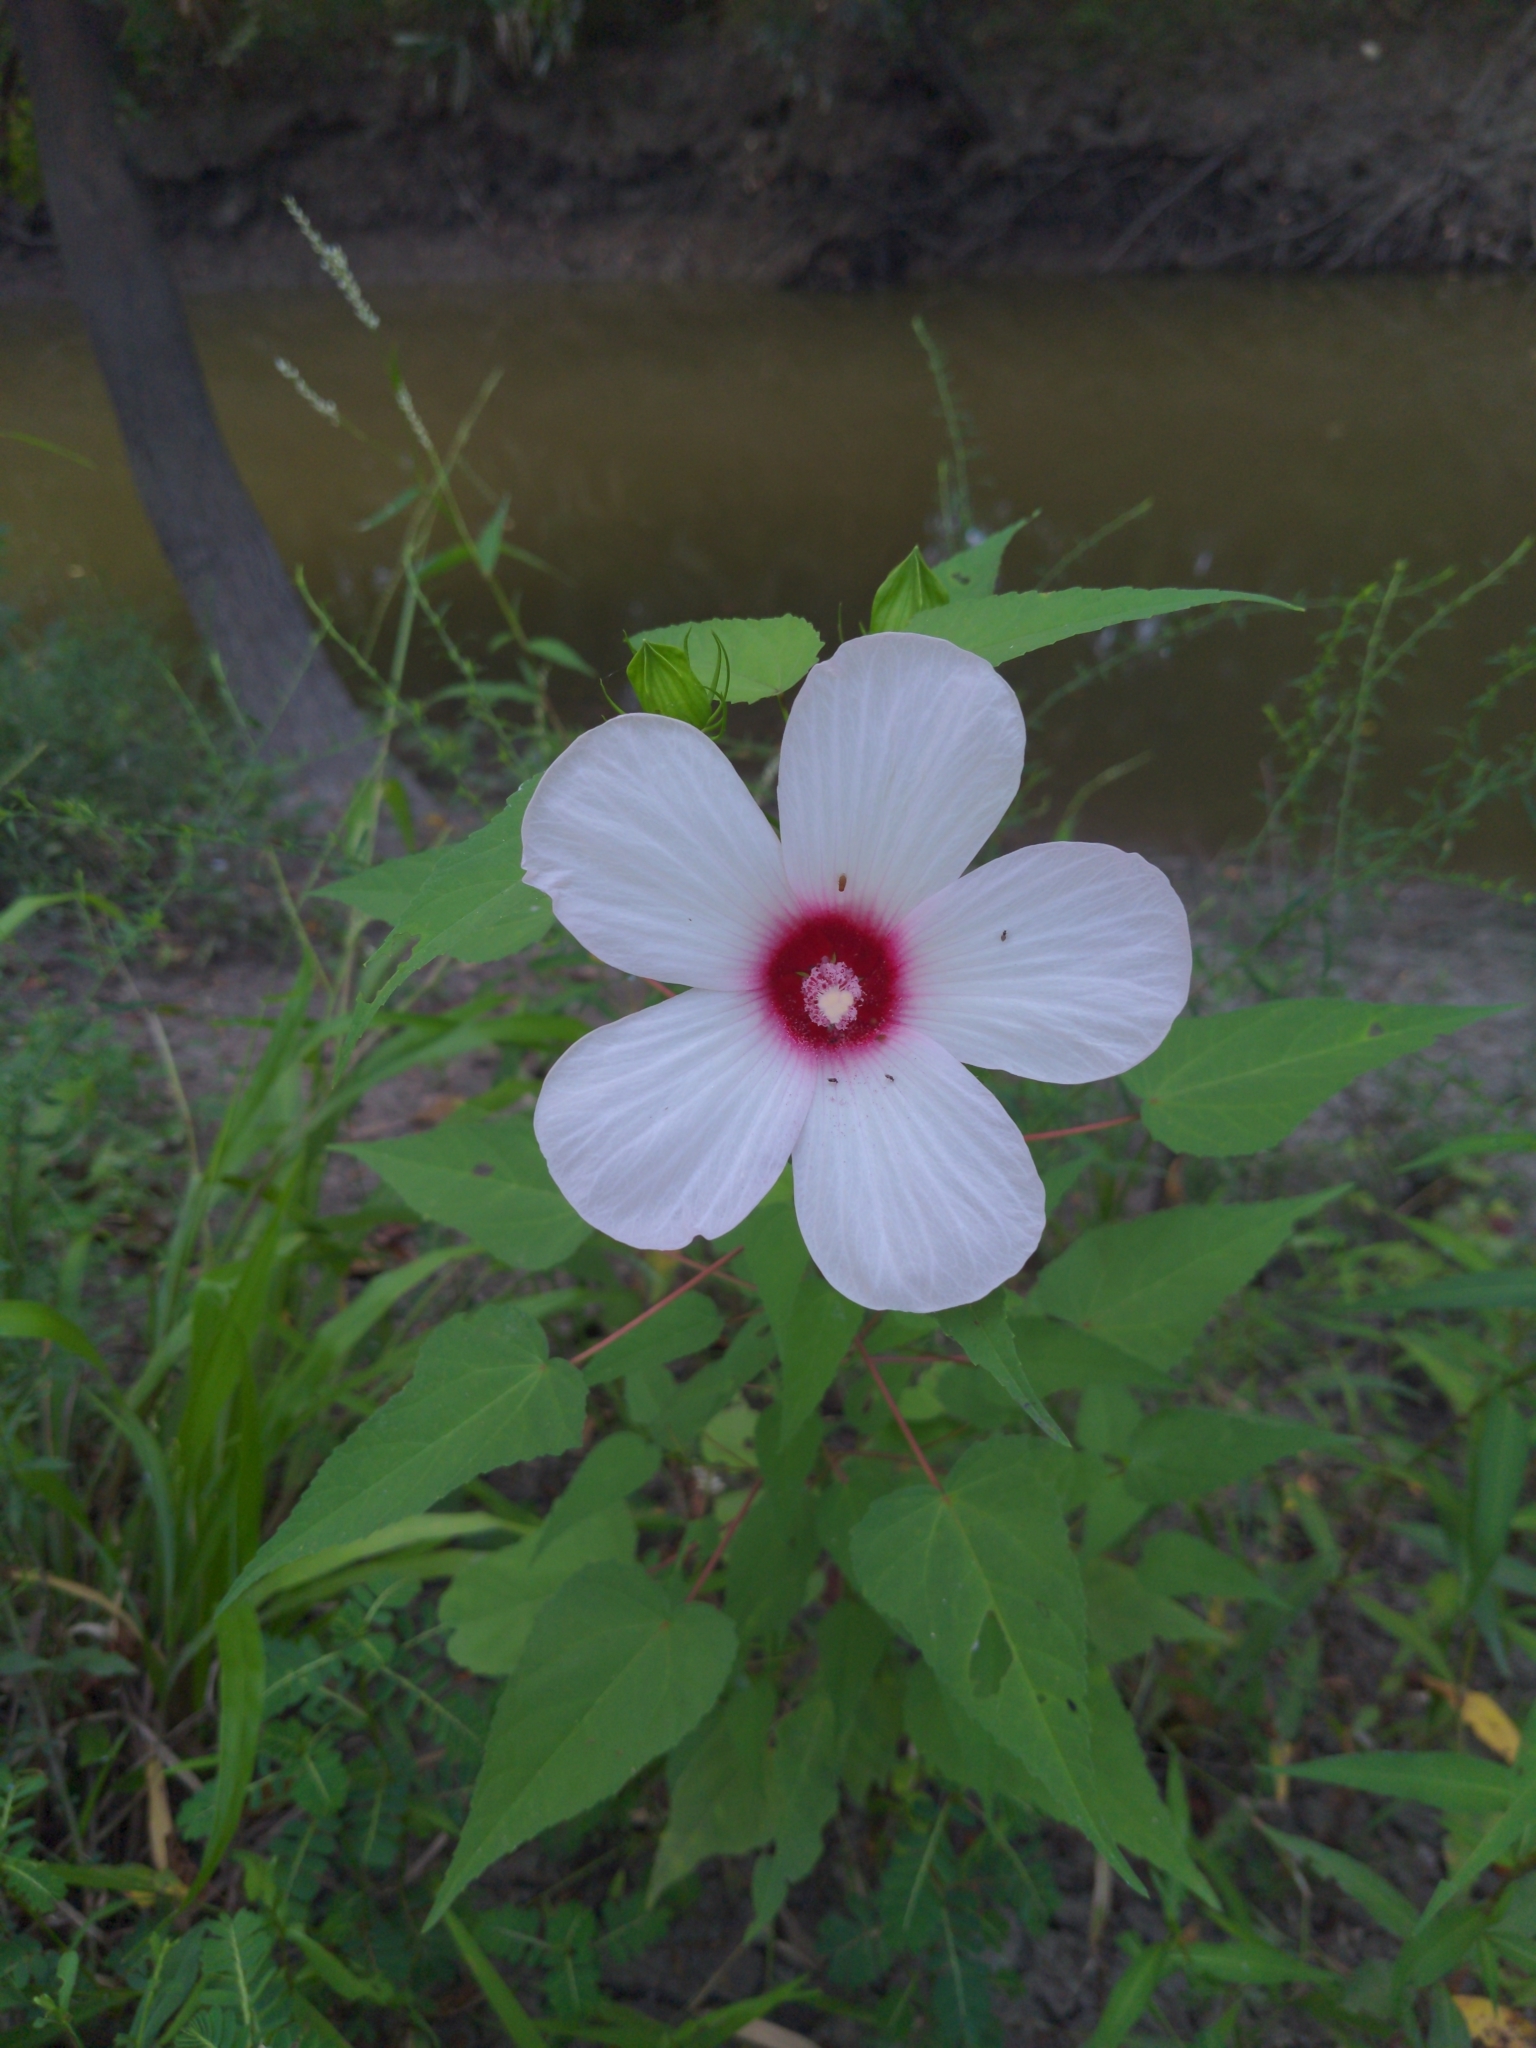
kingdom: Plantae
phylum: Tracheophyta
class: Magnoliopsida
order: Malvales
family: Malvaceae
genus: Hibiscus
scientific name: Hibiscus laevis
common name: Scarlet rose-mallow
